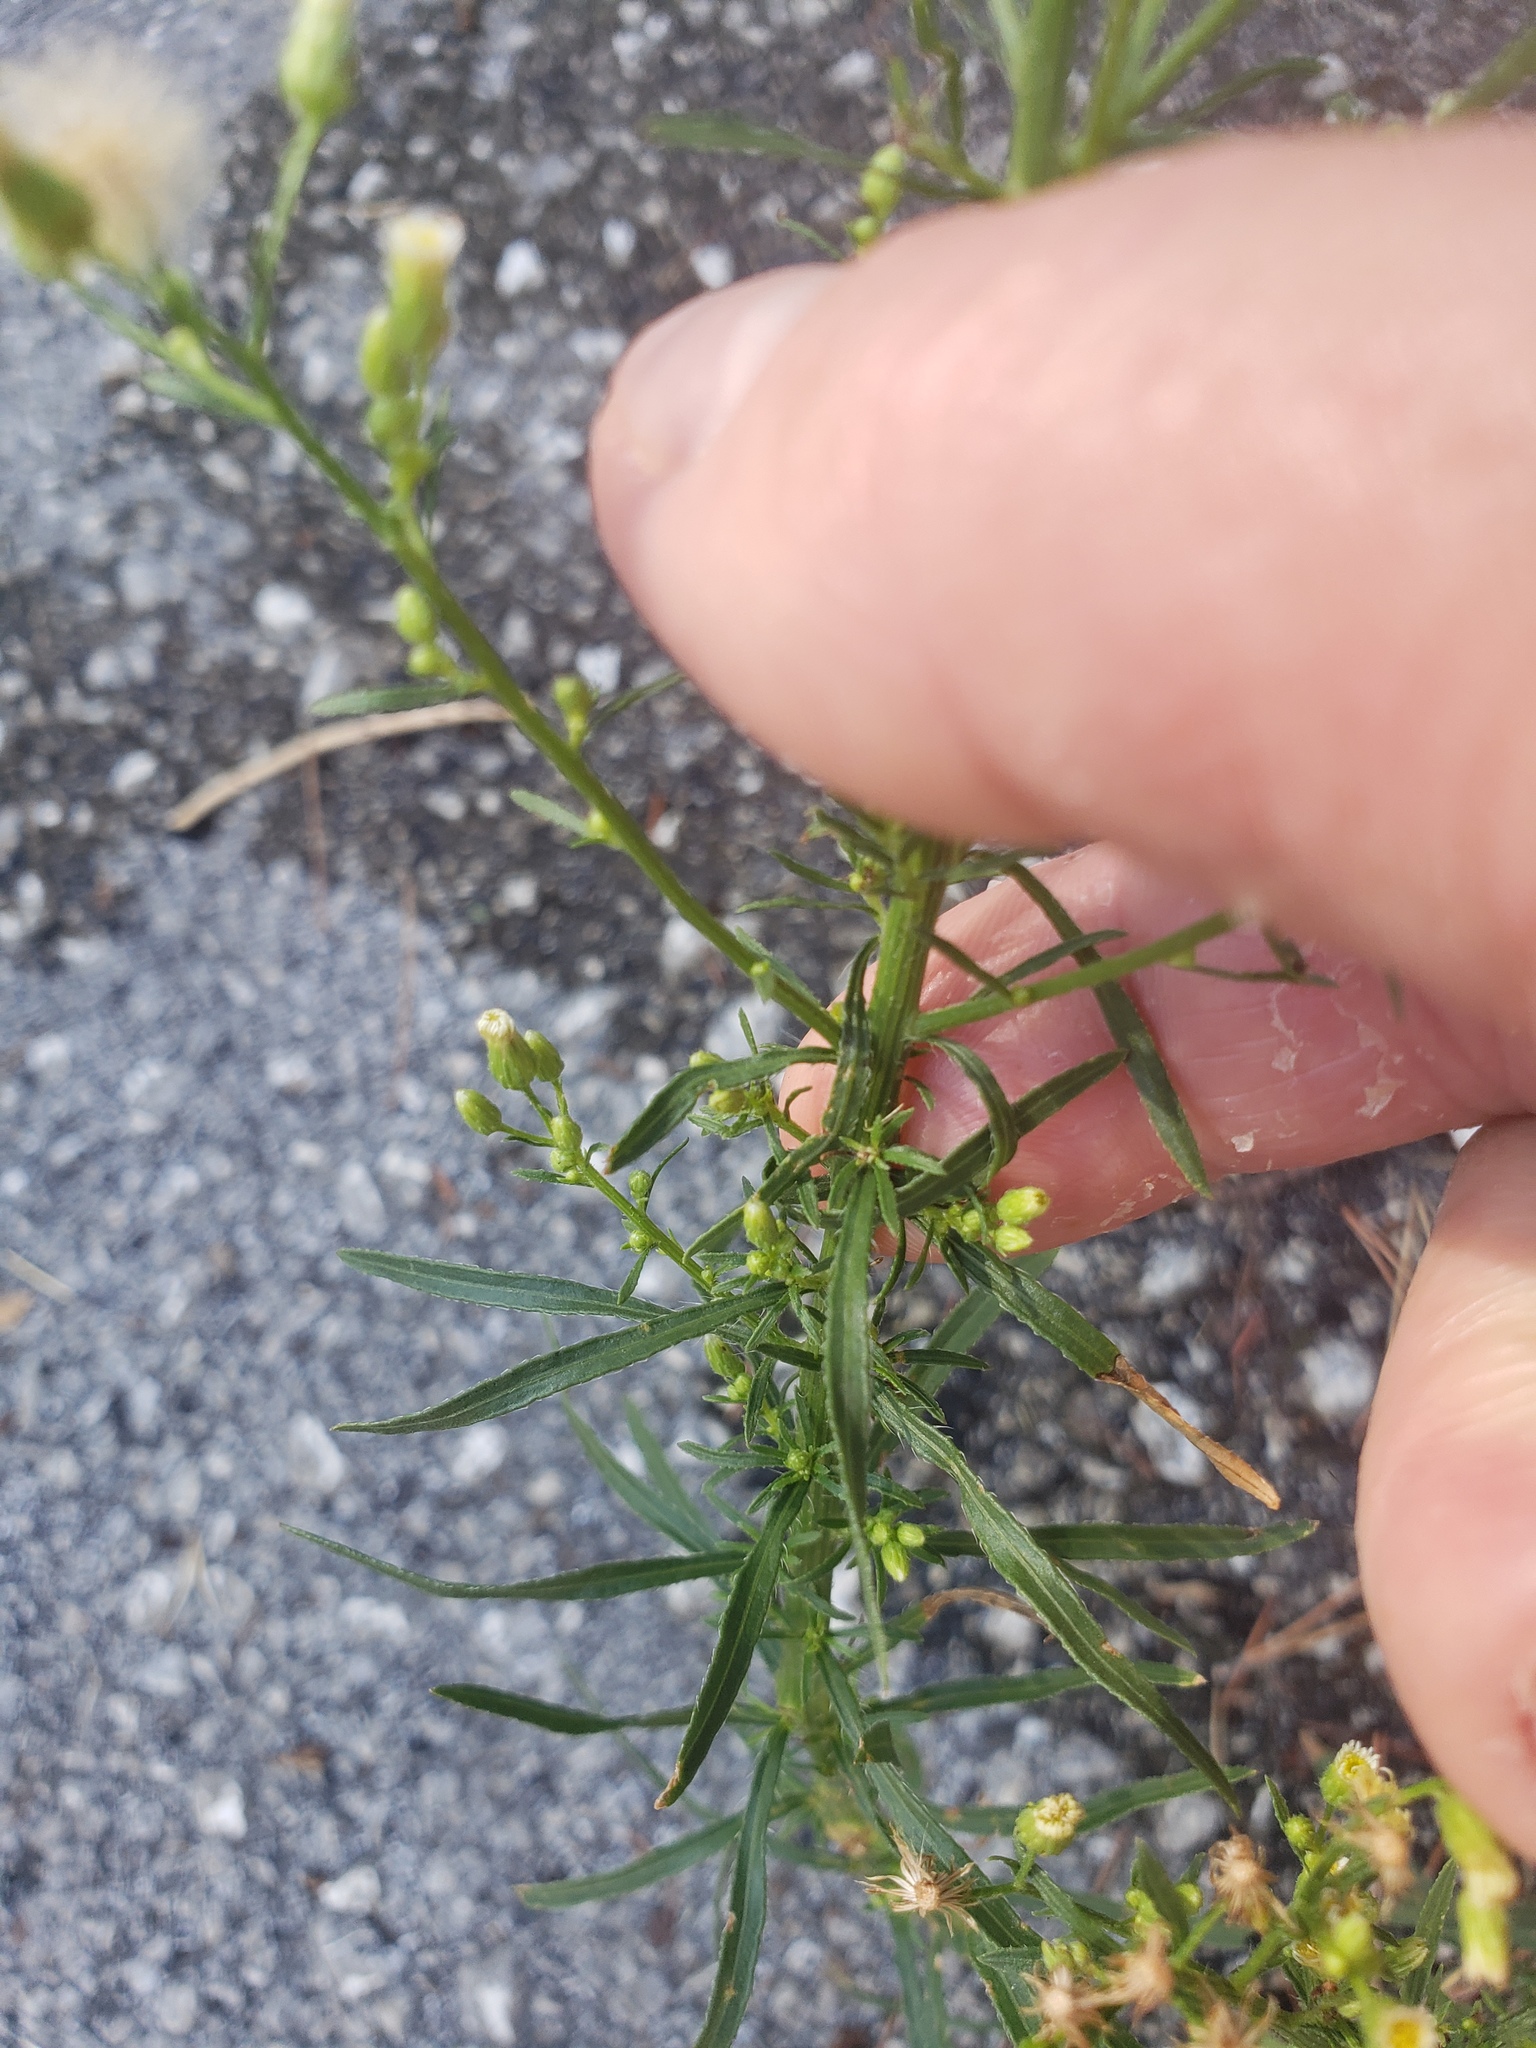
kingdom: Plantae
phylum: Tracheophyta
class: Magnoliopsida
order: Asterales
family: Asteraceae
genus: Erigeron
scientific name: Erigeron canadensis
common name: Canadian fleabane
